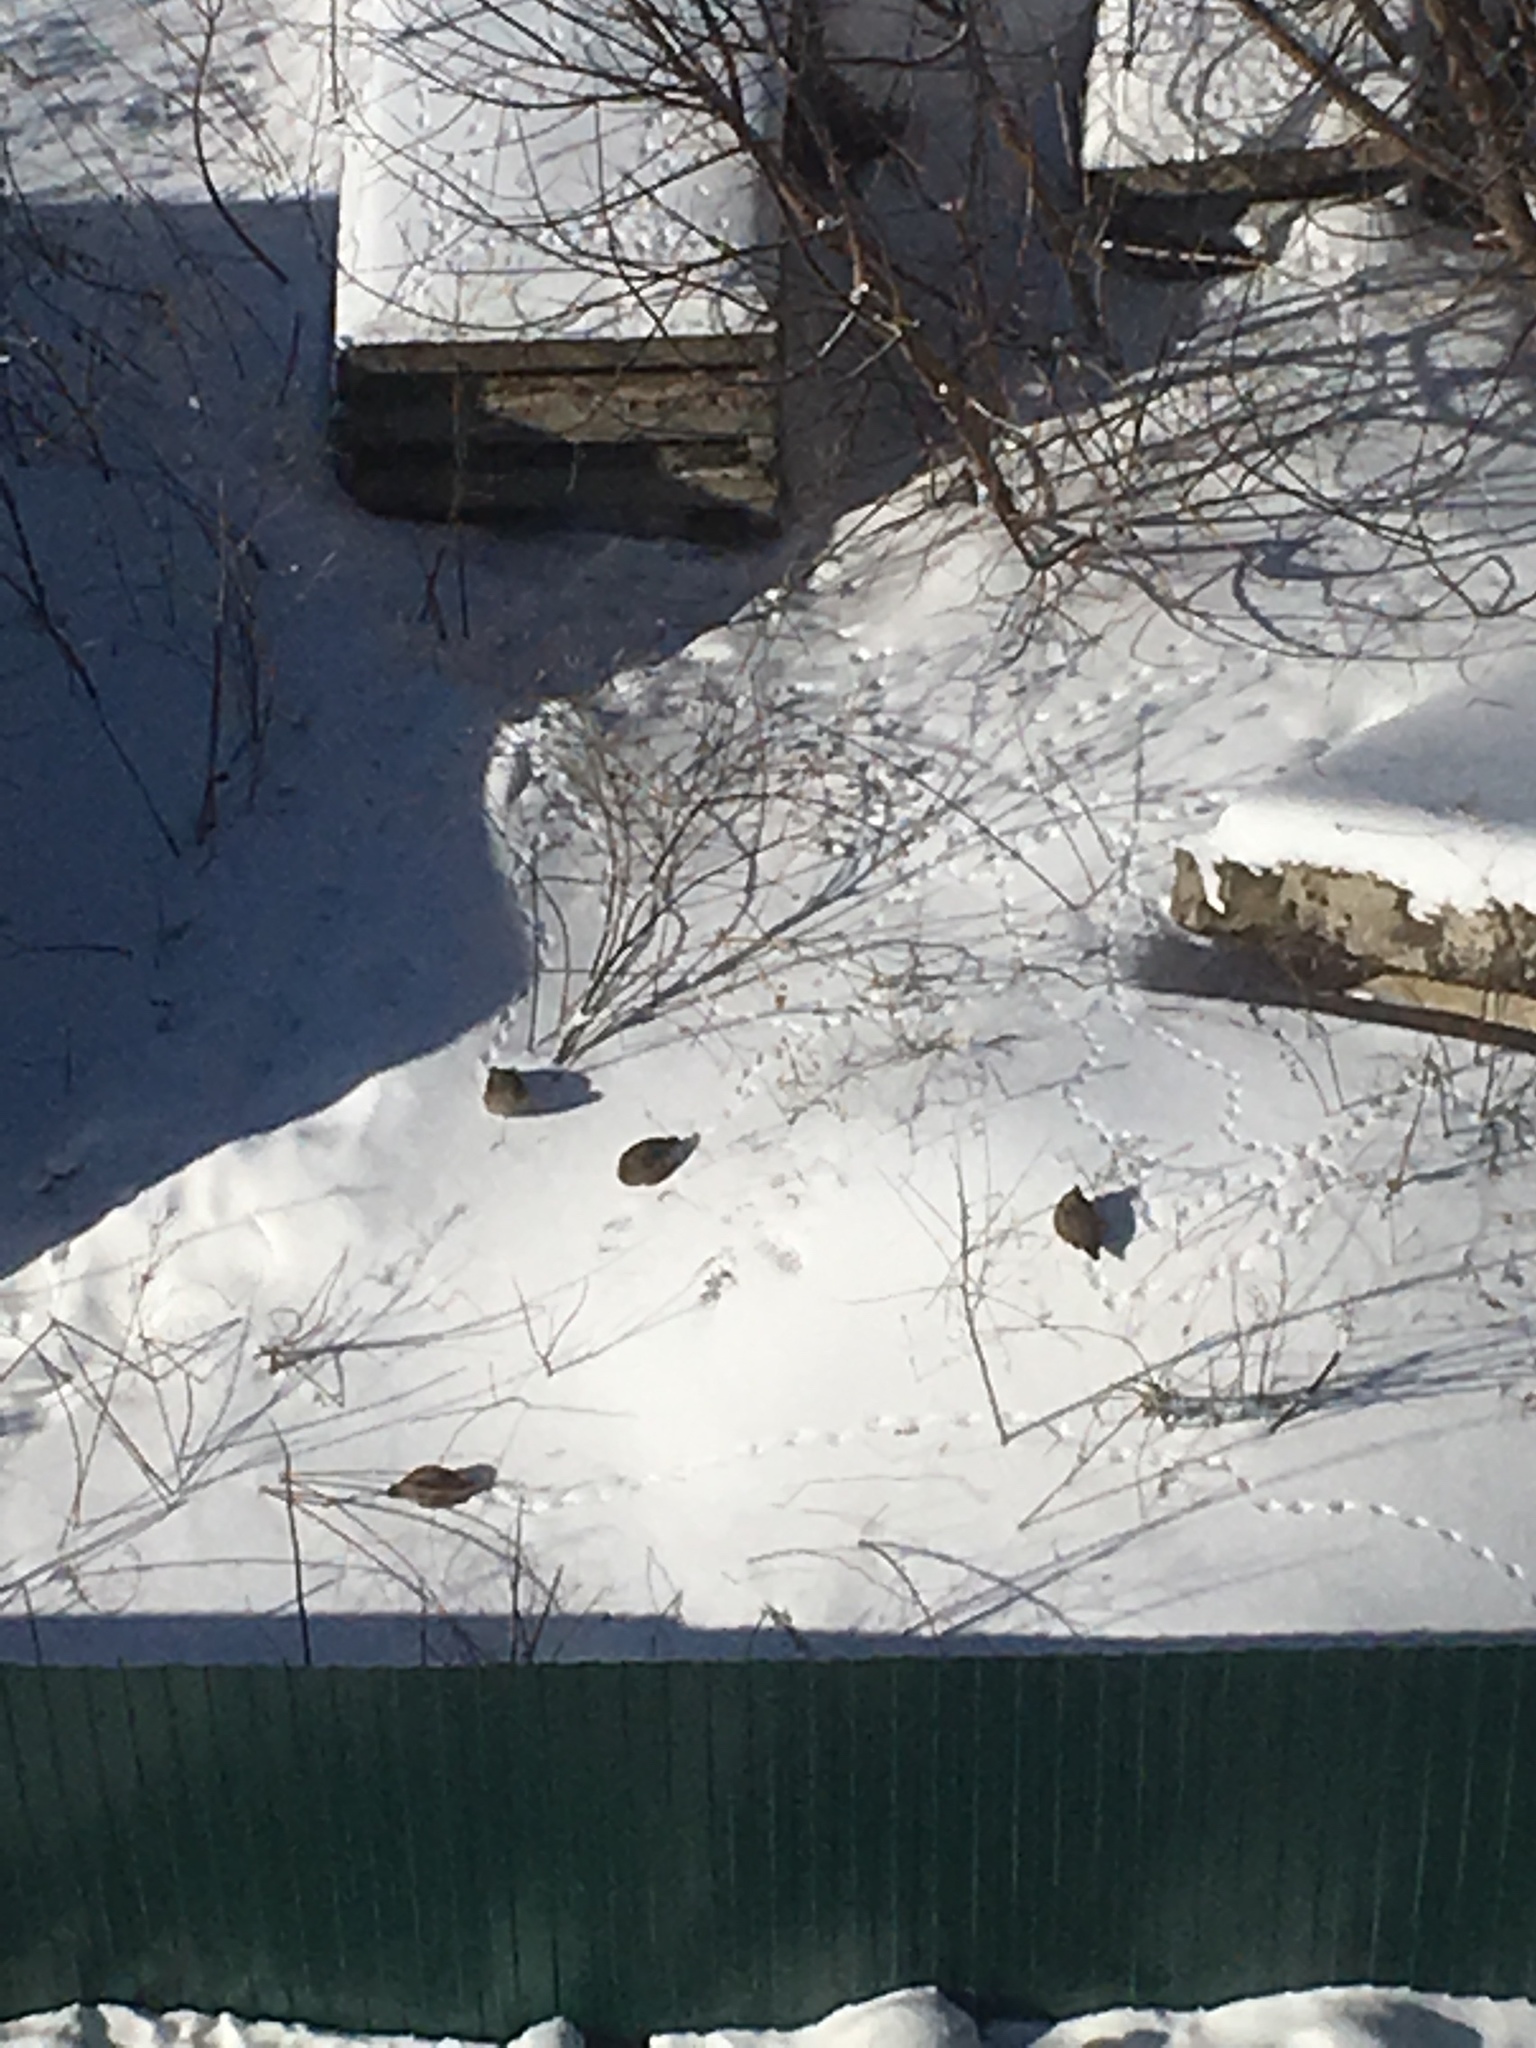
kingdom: Animalia
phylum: Chordata
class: Aves
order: Galliformes
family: Phasianidae
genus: Perdix
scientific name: Perdix perdix
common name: Grey partridge
